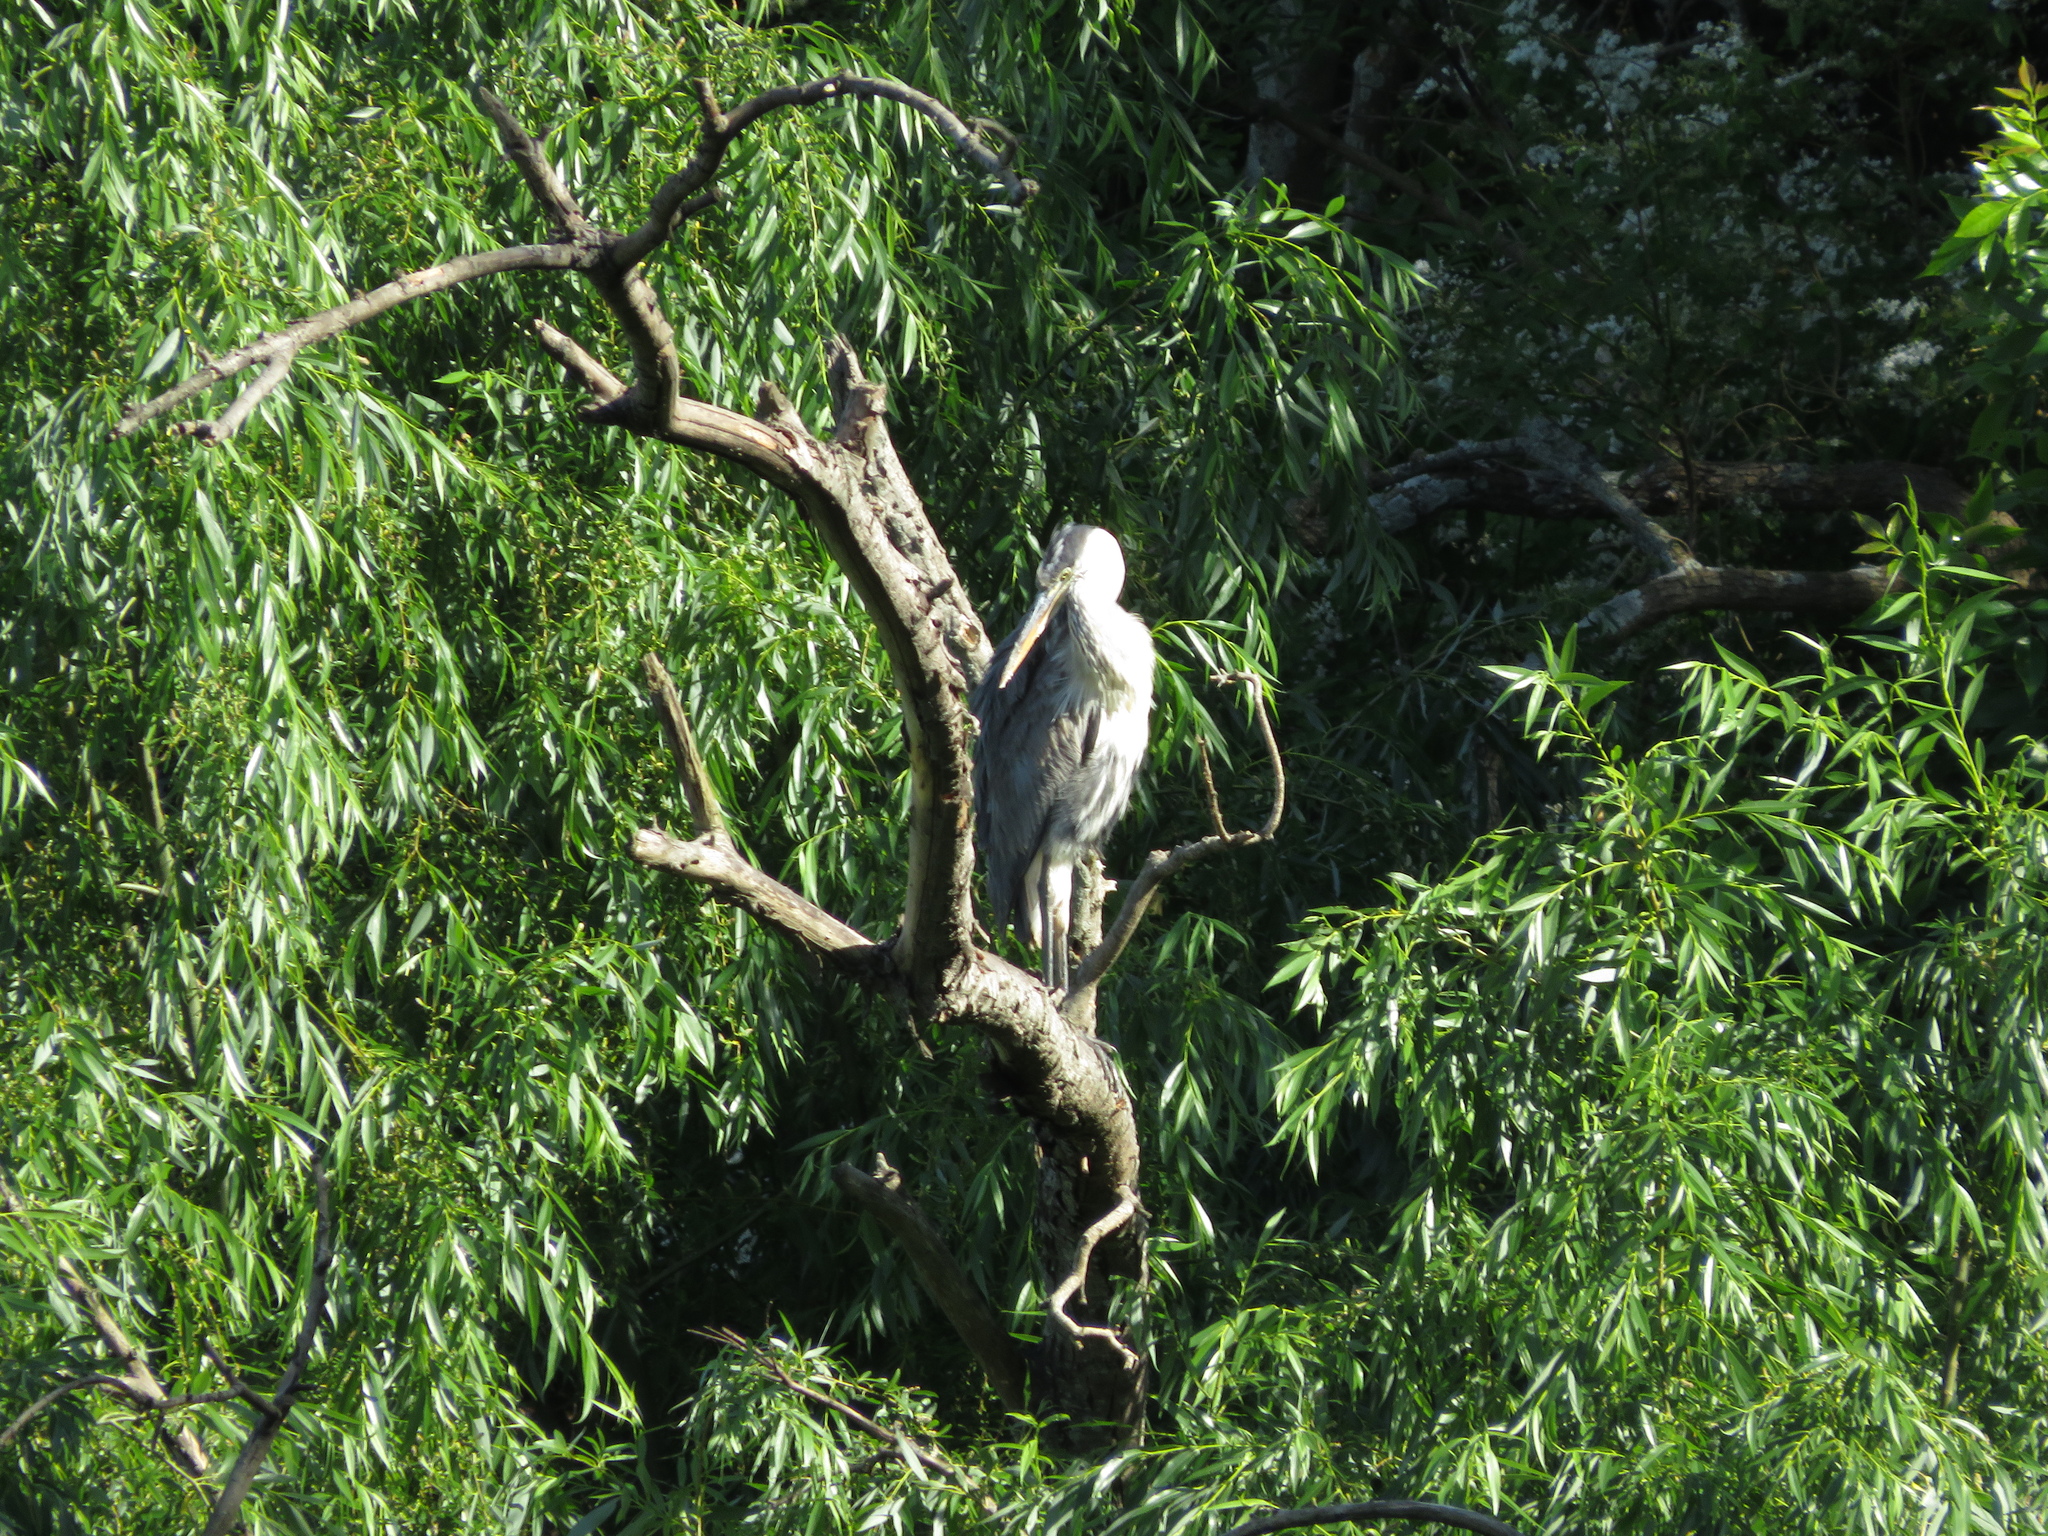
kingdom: Animalia
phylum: Chordata
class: Aves
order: Pelecaniformes
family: Ardeidae
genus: Ardea
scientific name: Ardea cocoi
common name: Cocoi heron
